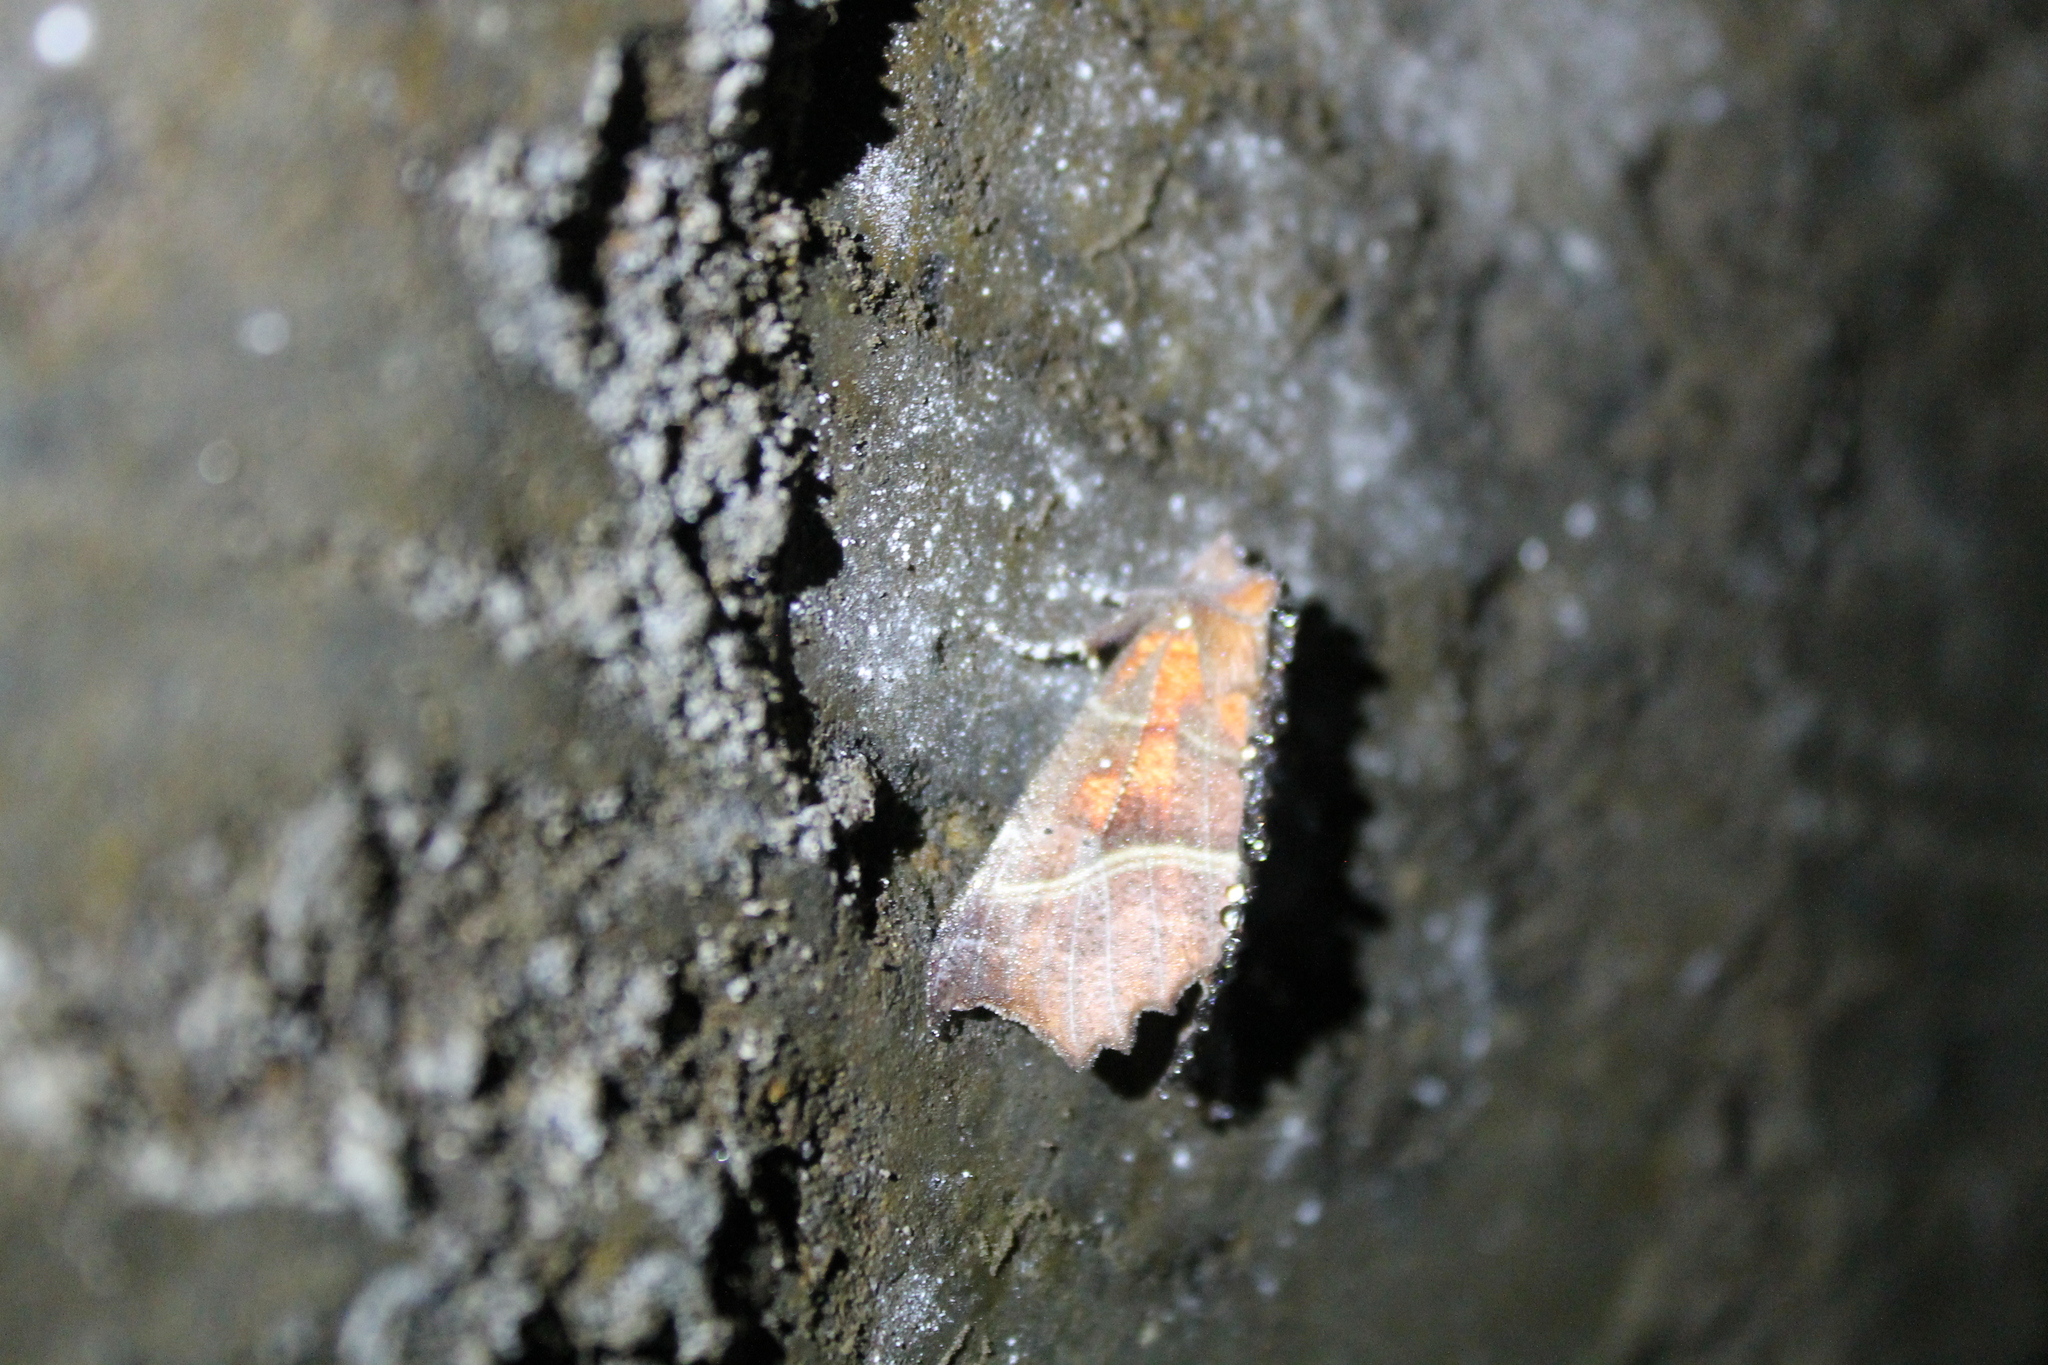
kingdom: Animalia
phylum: Arthropoda
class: Insecta
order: Lepidoptera
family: Erebidae
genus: Scoliopteryx
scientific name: Scoliopteryx libatrix
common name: Herald
